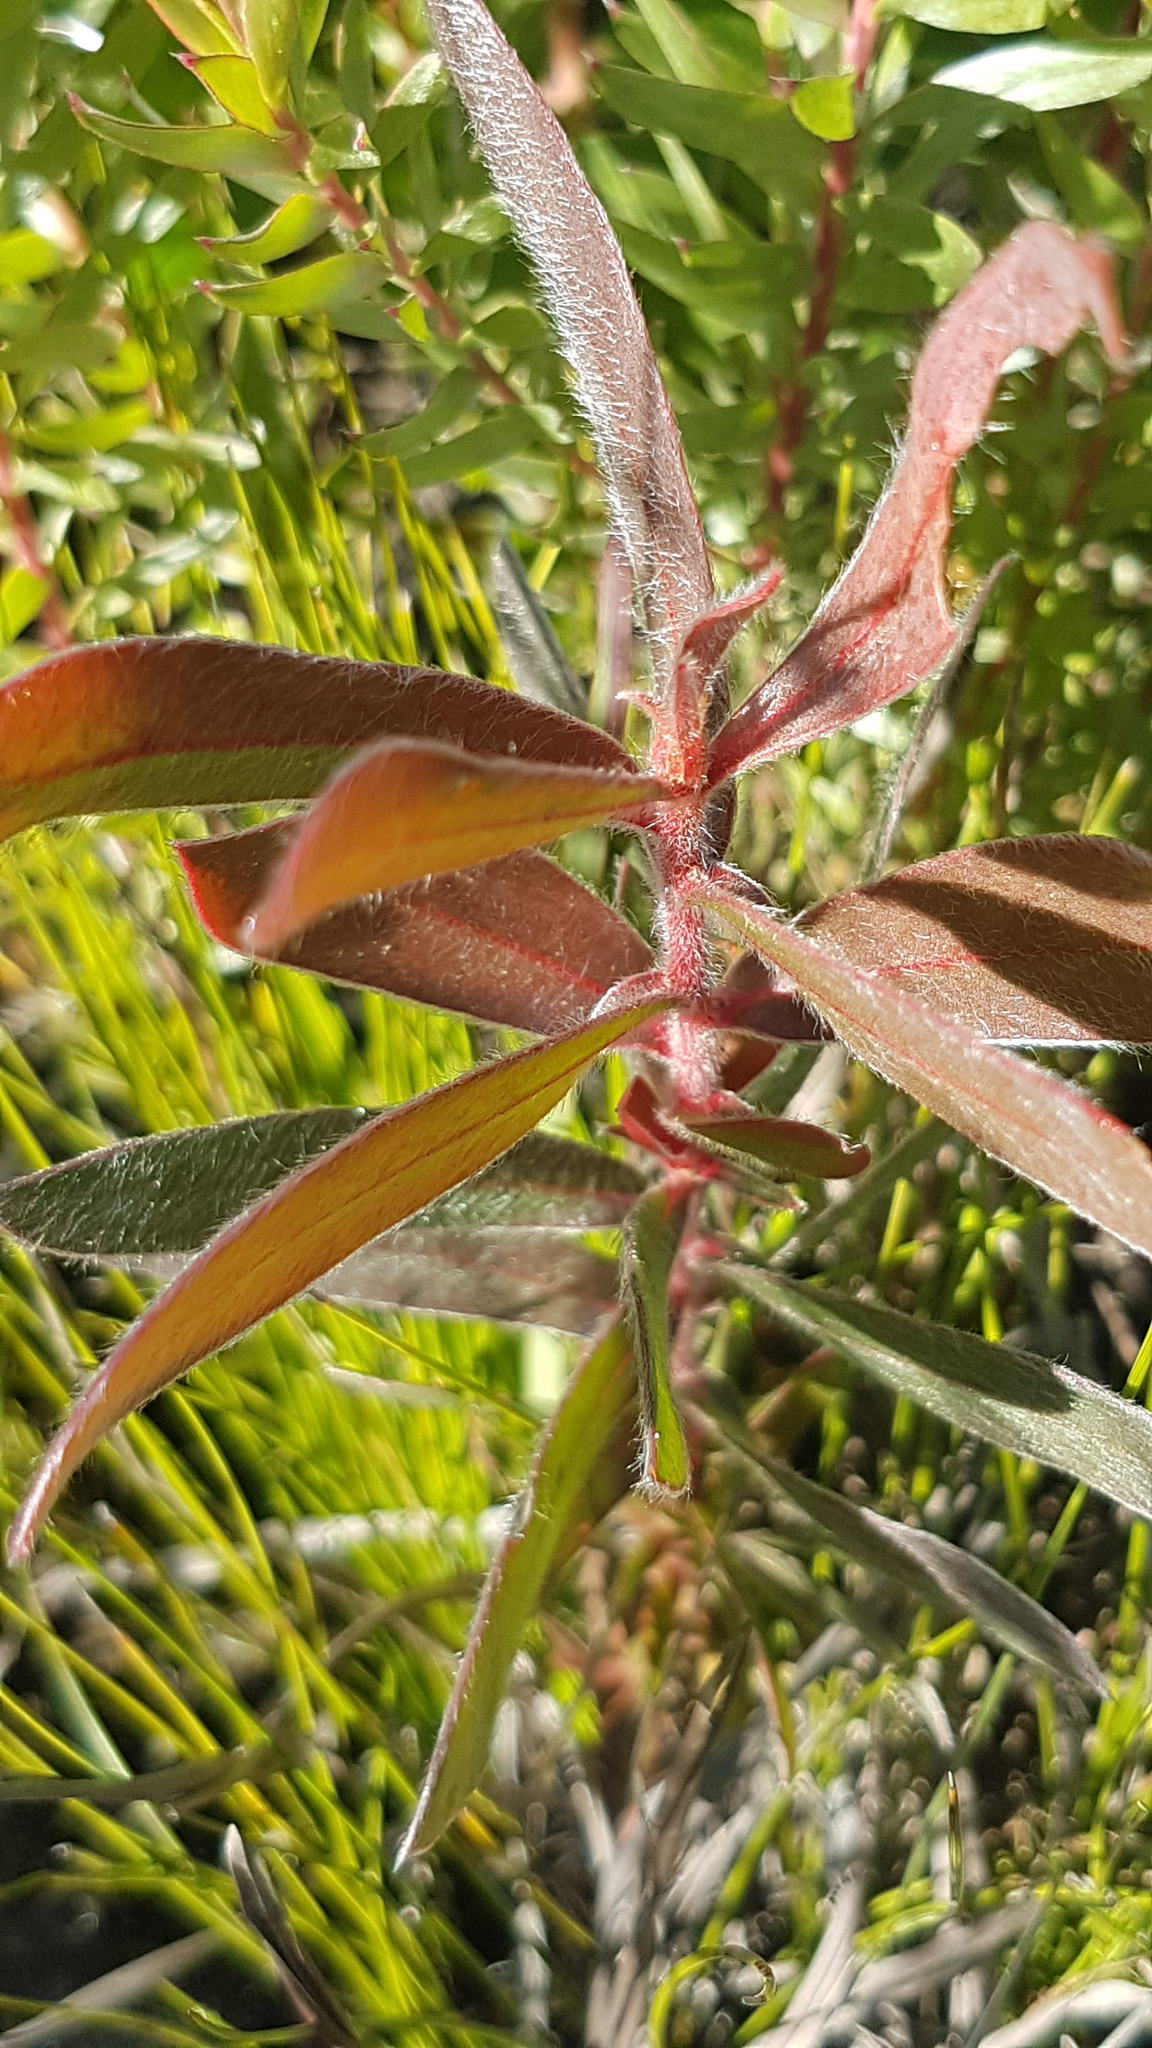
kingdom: Plantae
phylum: Tracheophyta
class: Magnoliopsida
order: Proteales
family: Proteaceae
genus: Protea
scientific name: Protea aurea
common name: Shuttlecock sugarbush
